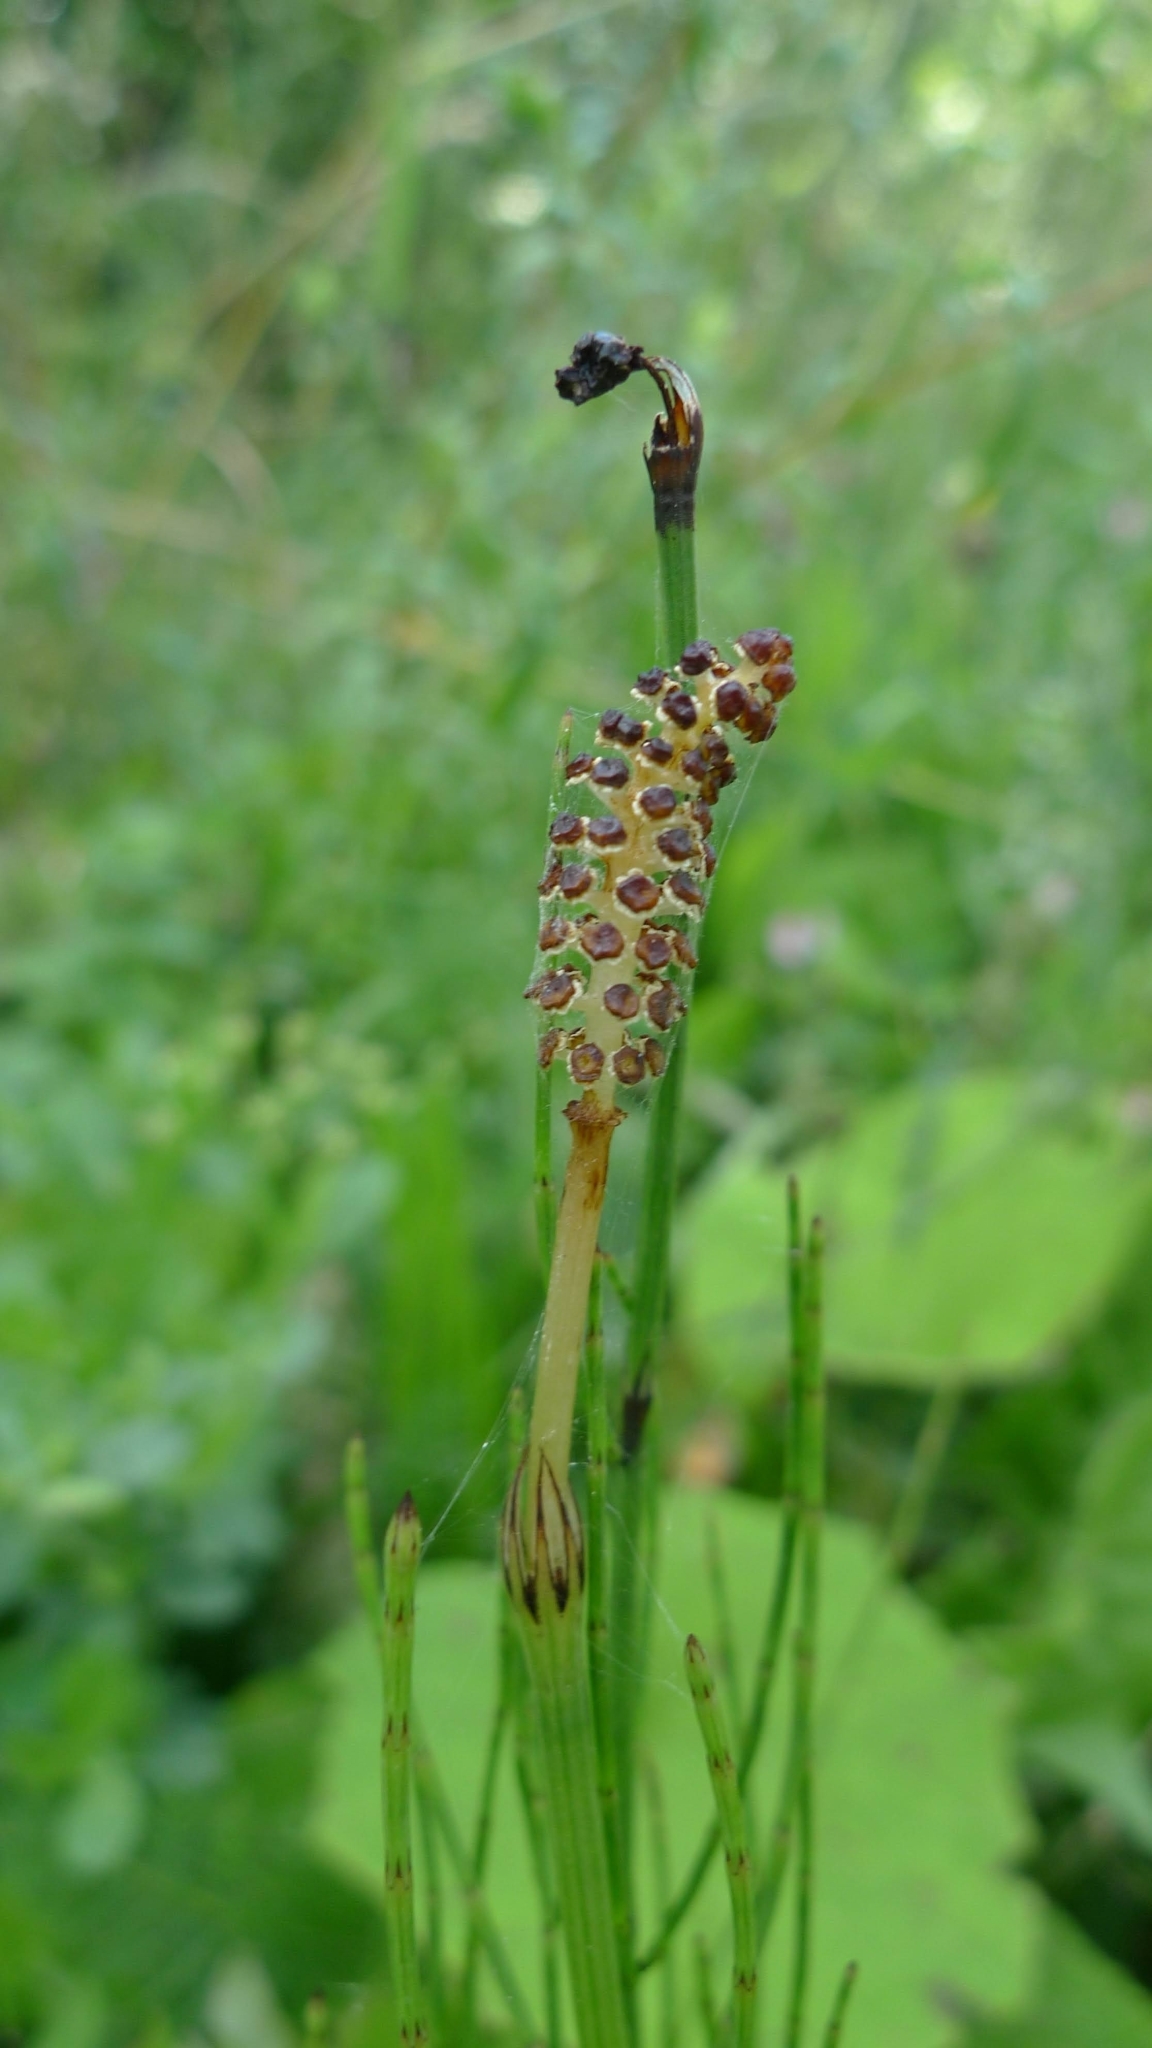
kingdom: Plantae
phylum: Tracheophyta
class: Polypodiopsida
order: Equisetales
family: Equisetaceae
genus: Equisetum
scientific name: Equisetum palustre
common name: Marsh horsetail
